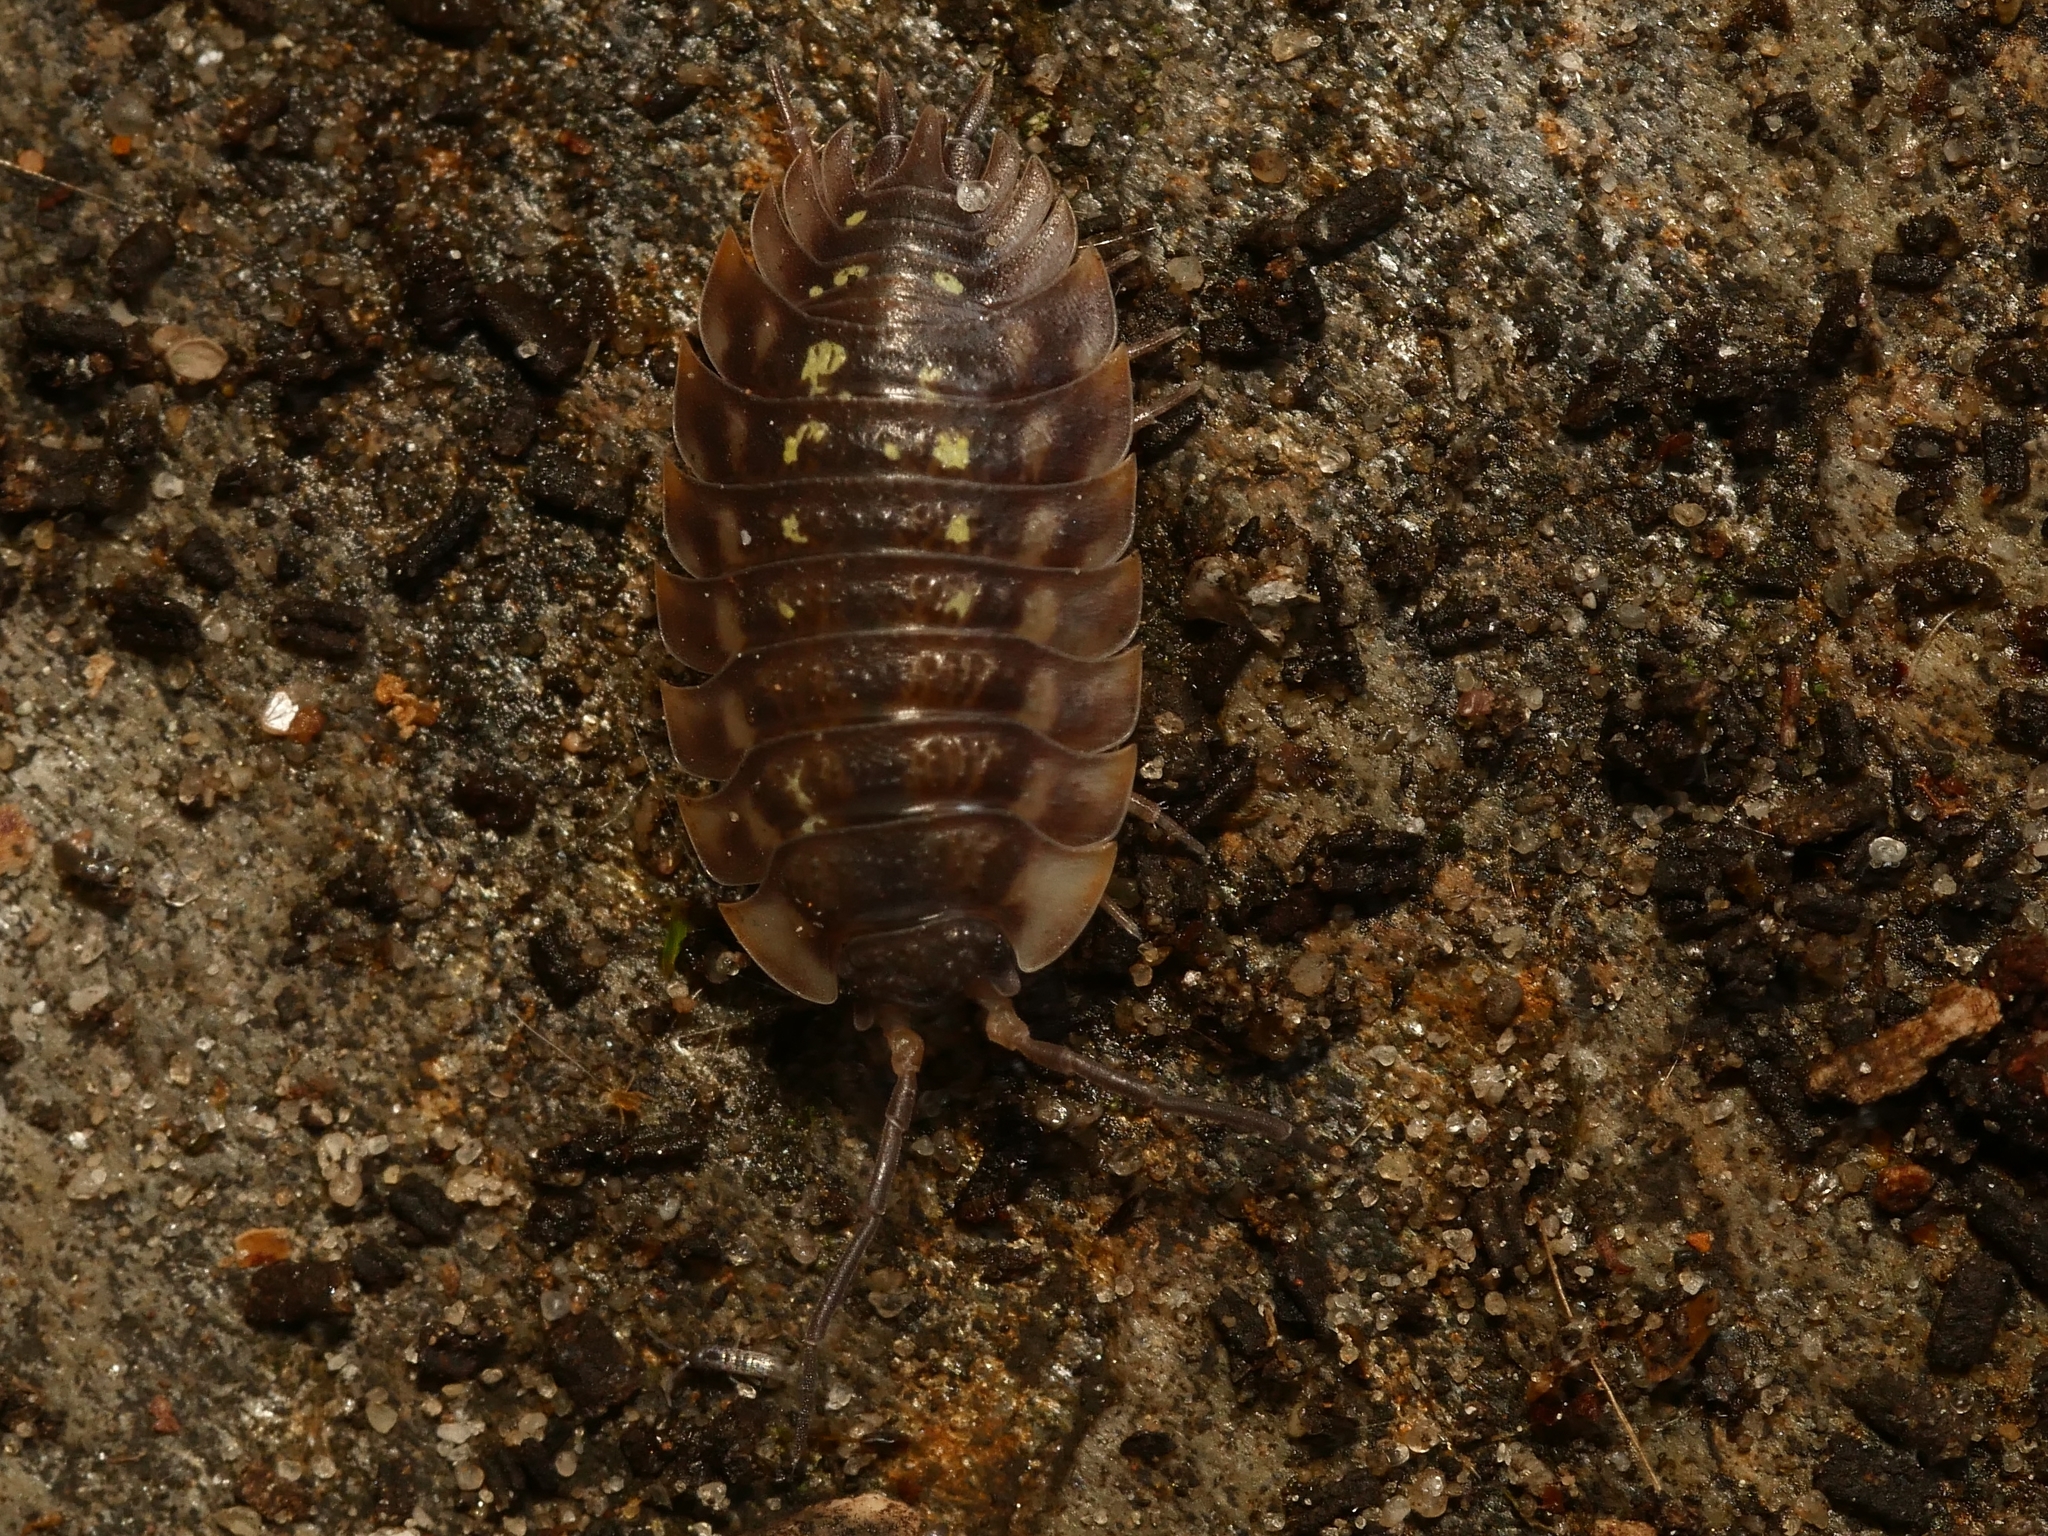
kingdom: Animalia
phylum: Arthropoda
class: Malacostraca
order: Isopoda
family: Oniscidae
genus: Oniscus
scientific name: Oniscus asellus
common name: Common shiny woodlouse
